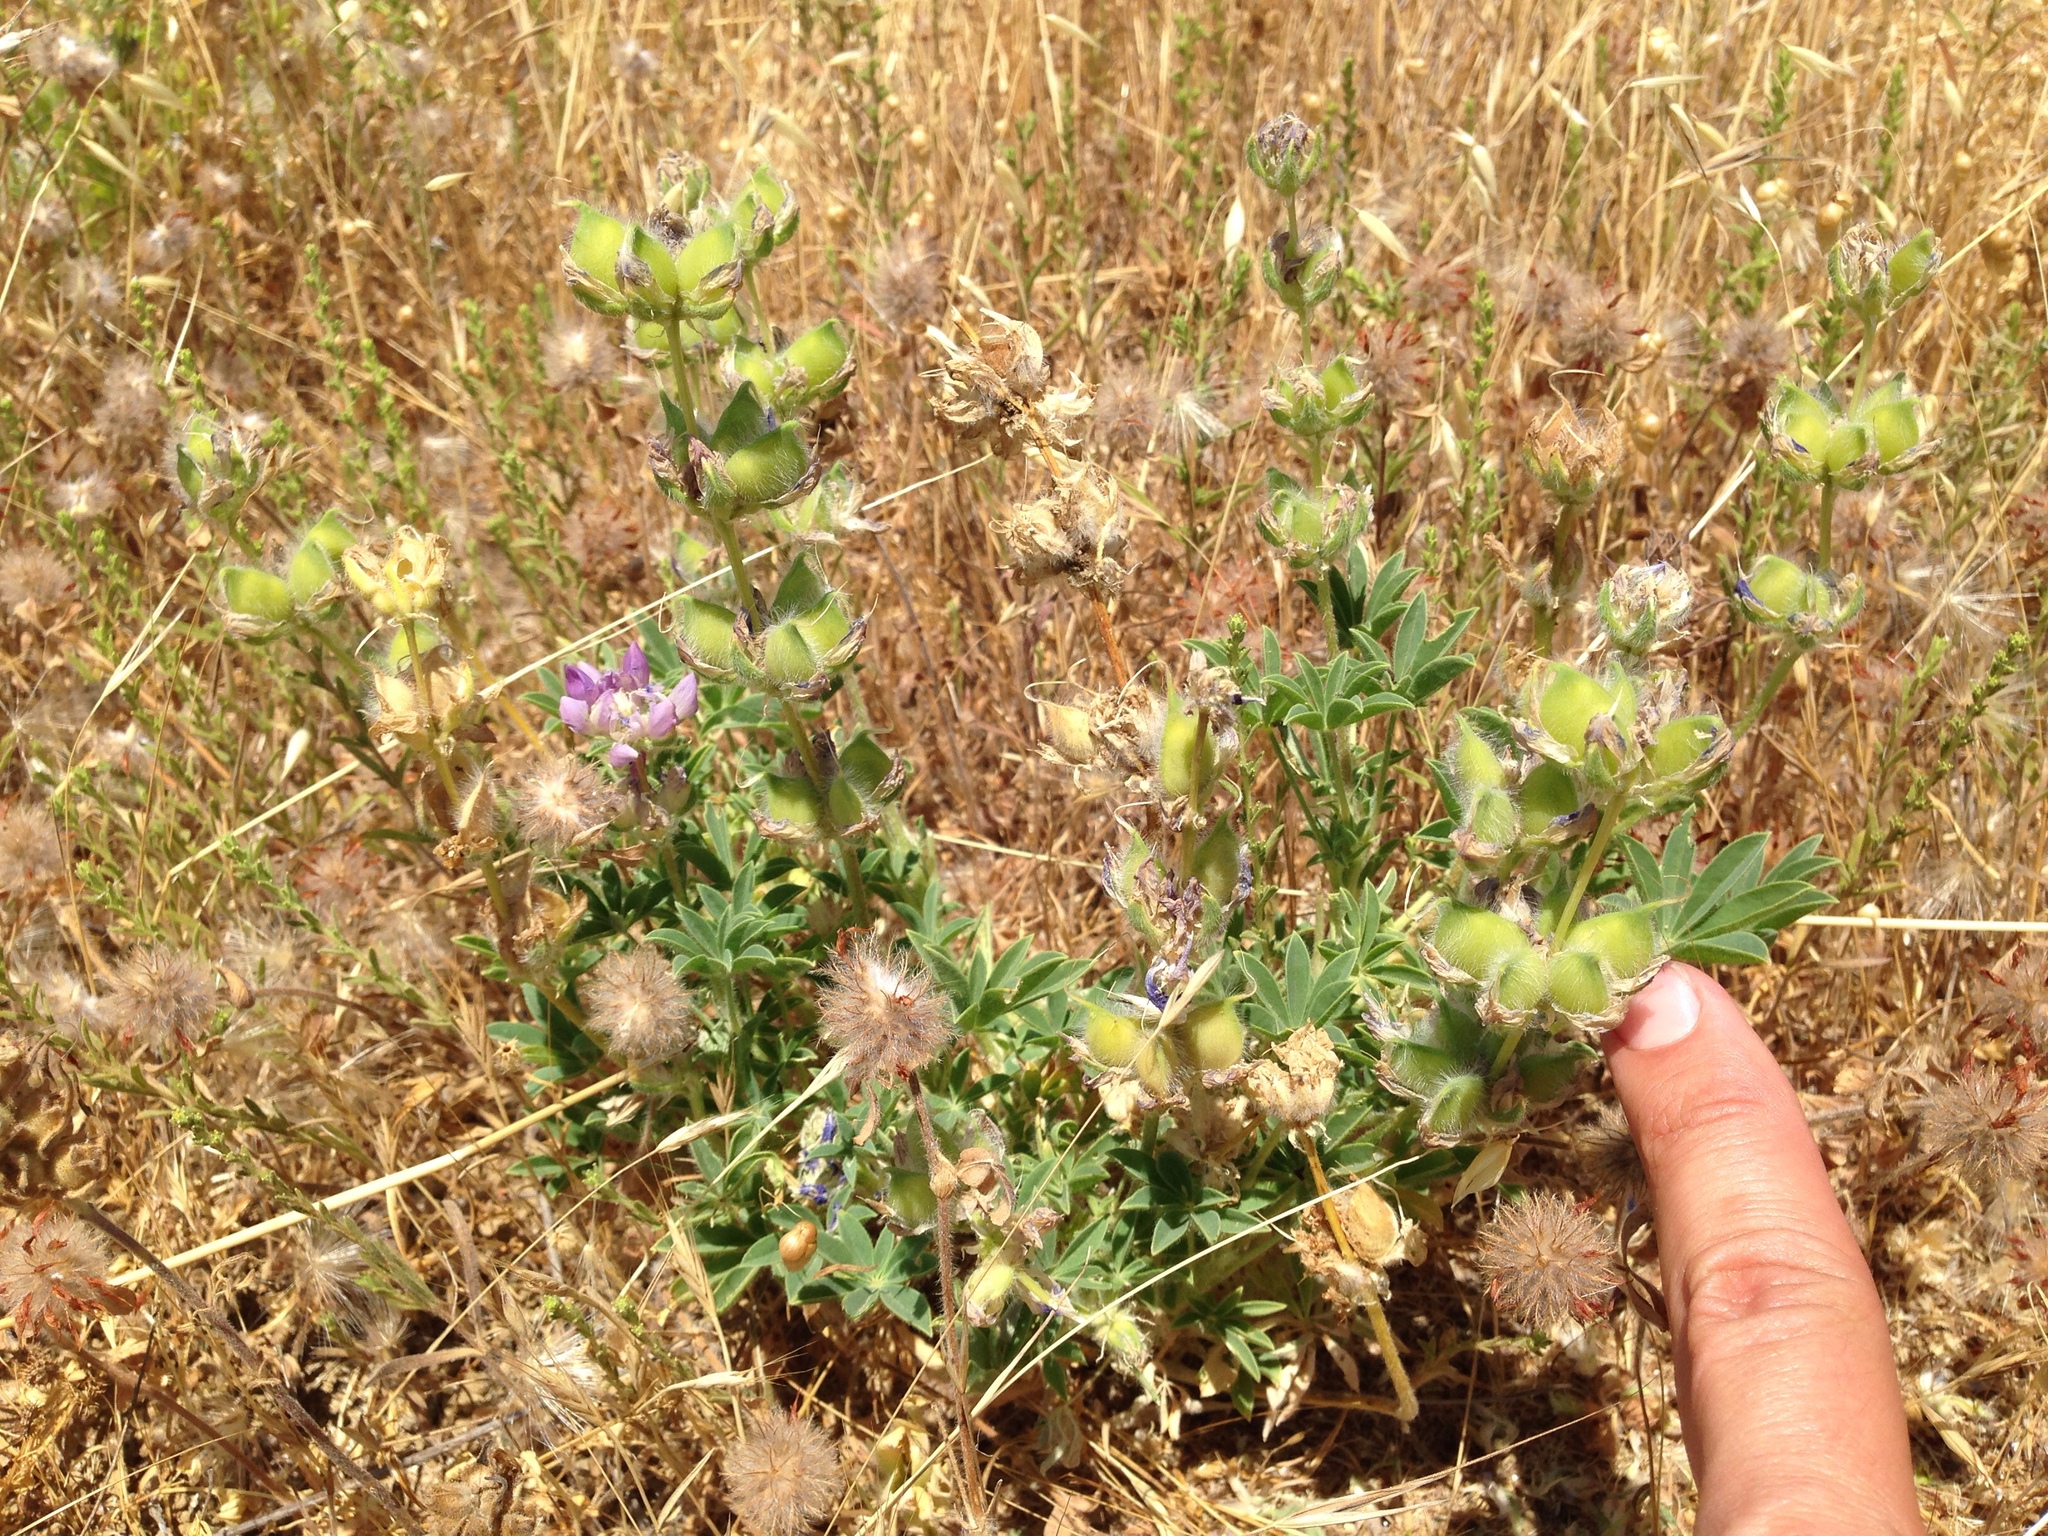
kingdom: Plantae
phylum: Tracheophyta
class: Magnoliopsida
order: Fabales
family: Fabaceae
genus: Lupinus
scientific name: Lupinus microcarpus
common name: Chick lupine
